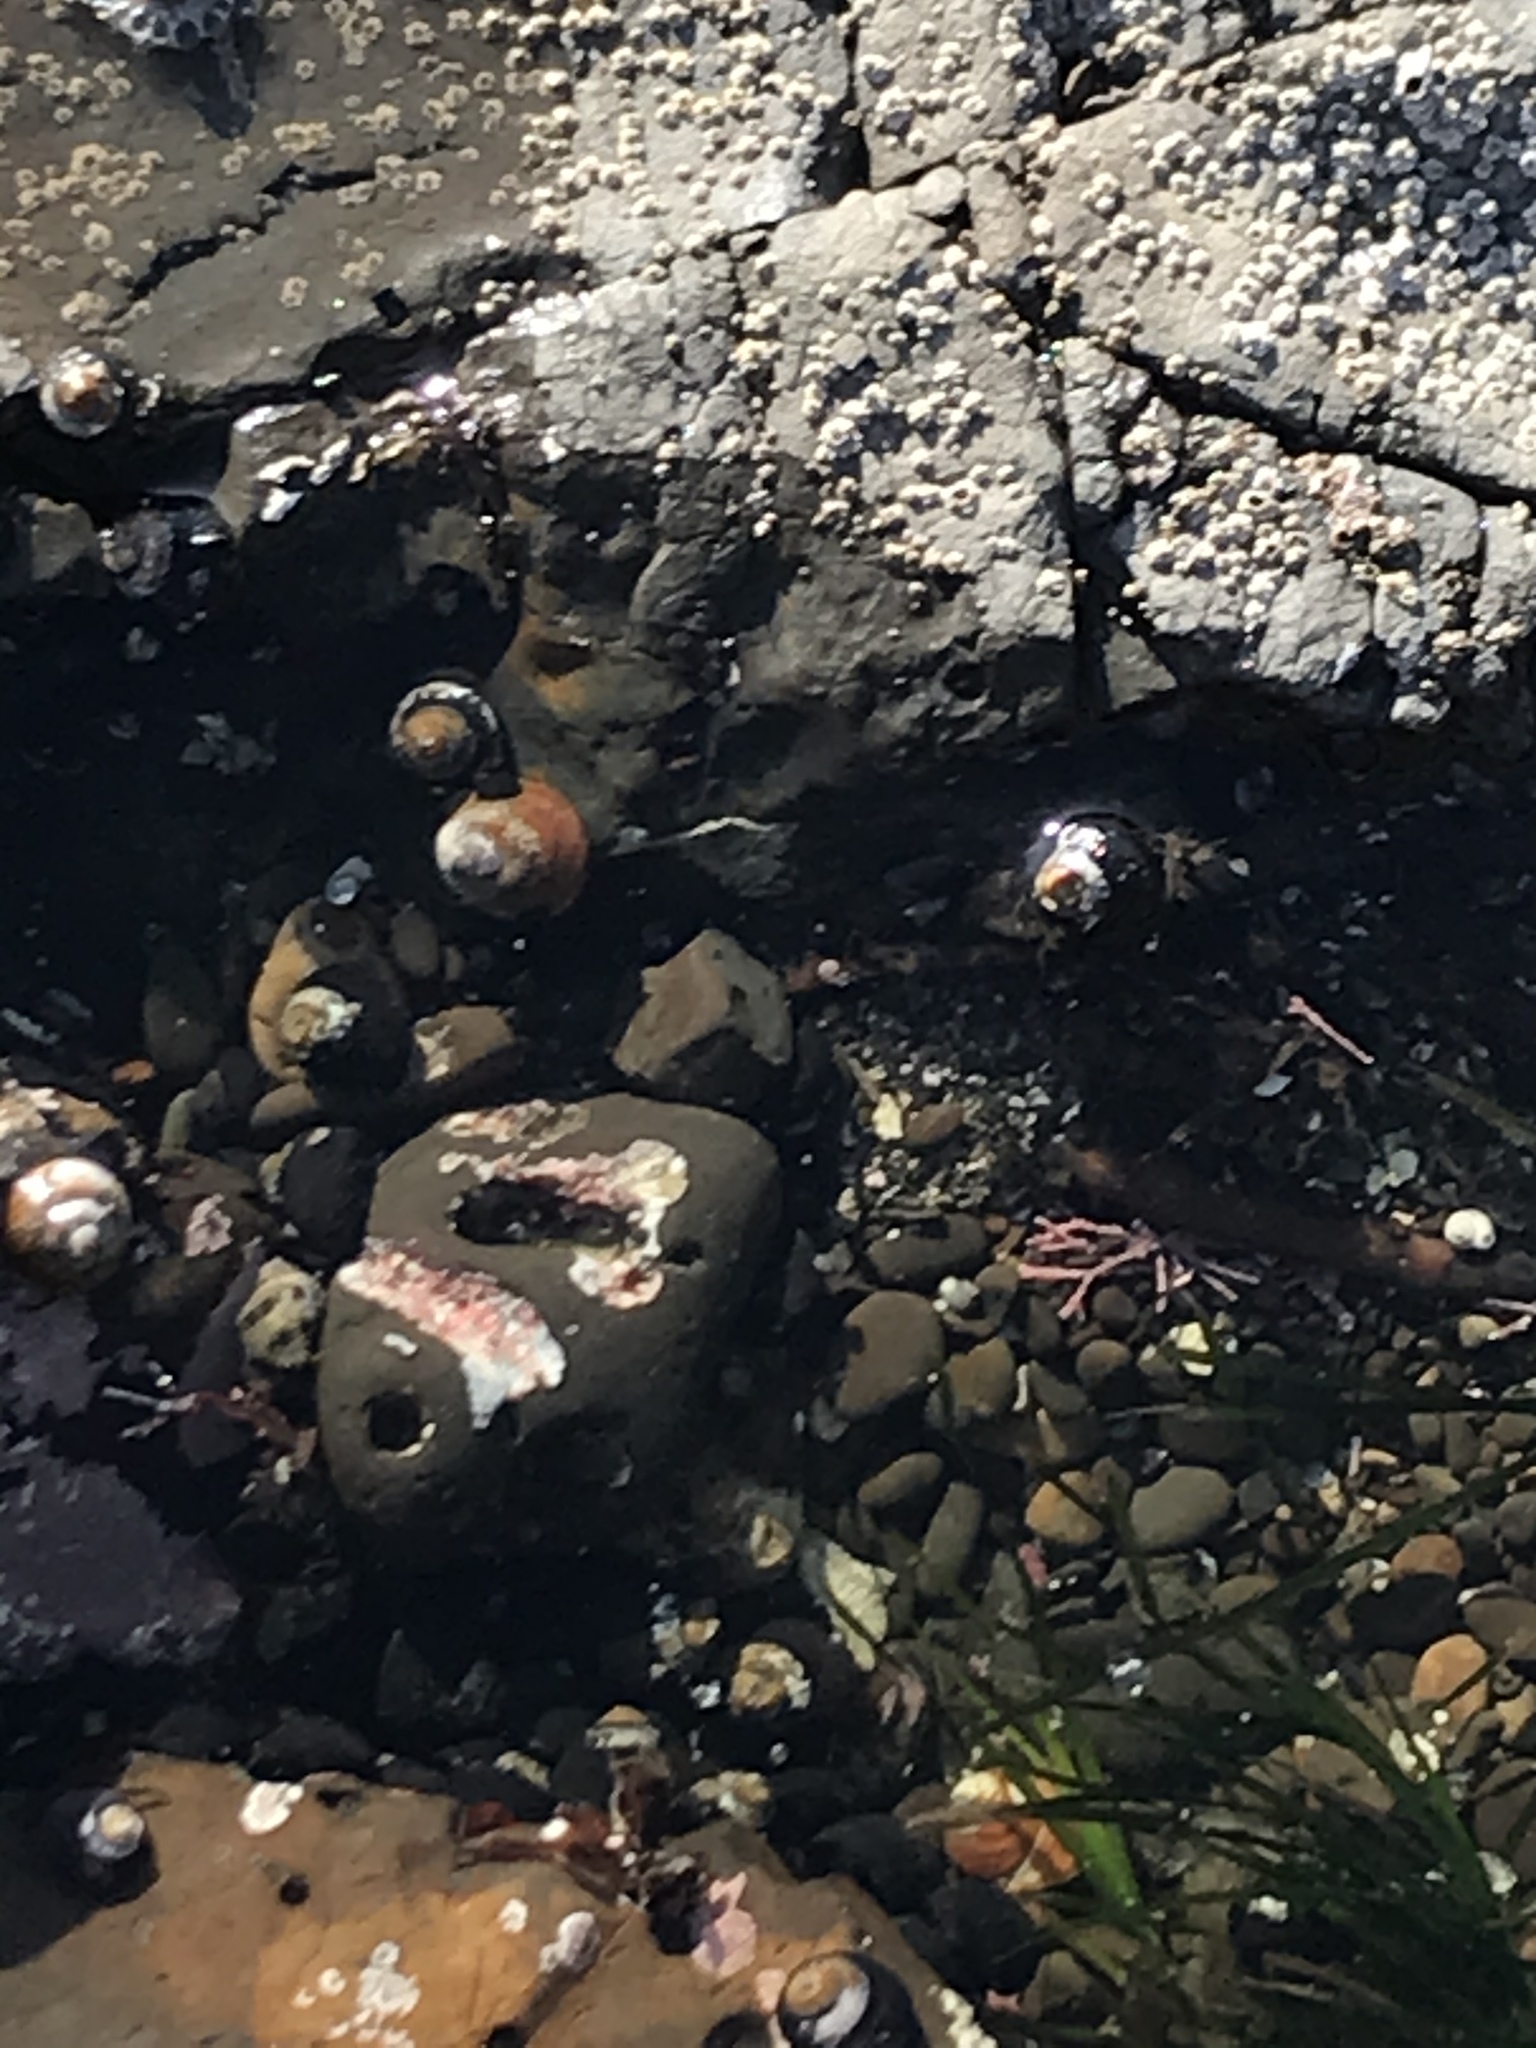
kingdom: Animalia
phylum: Mollusca
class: Gastropoda
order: Trochida
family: Tegulidae
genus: Tegula
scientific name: Tegula brunnea
